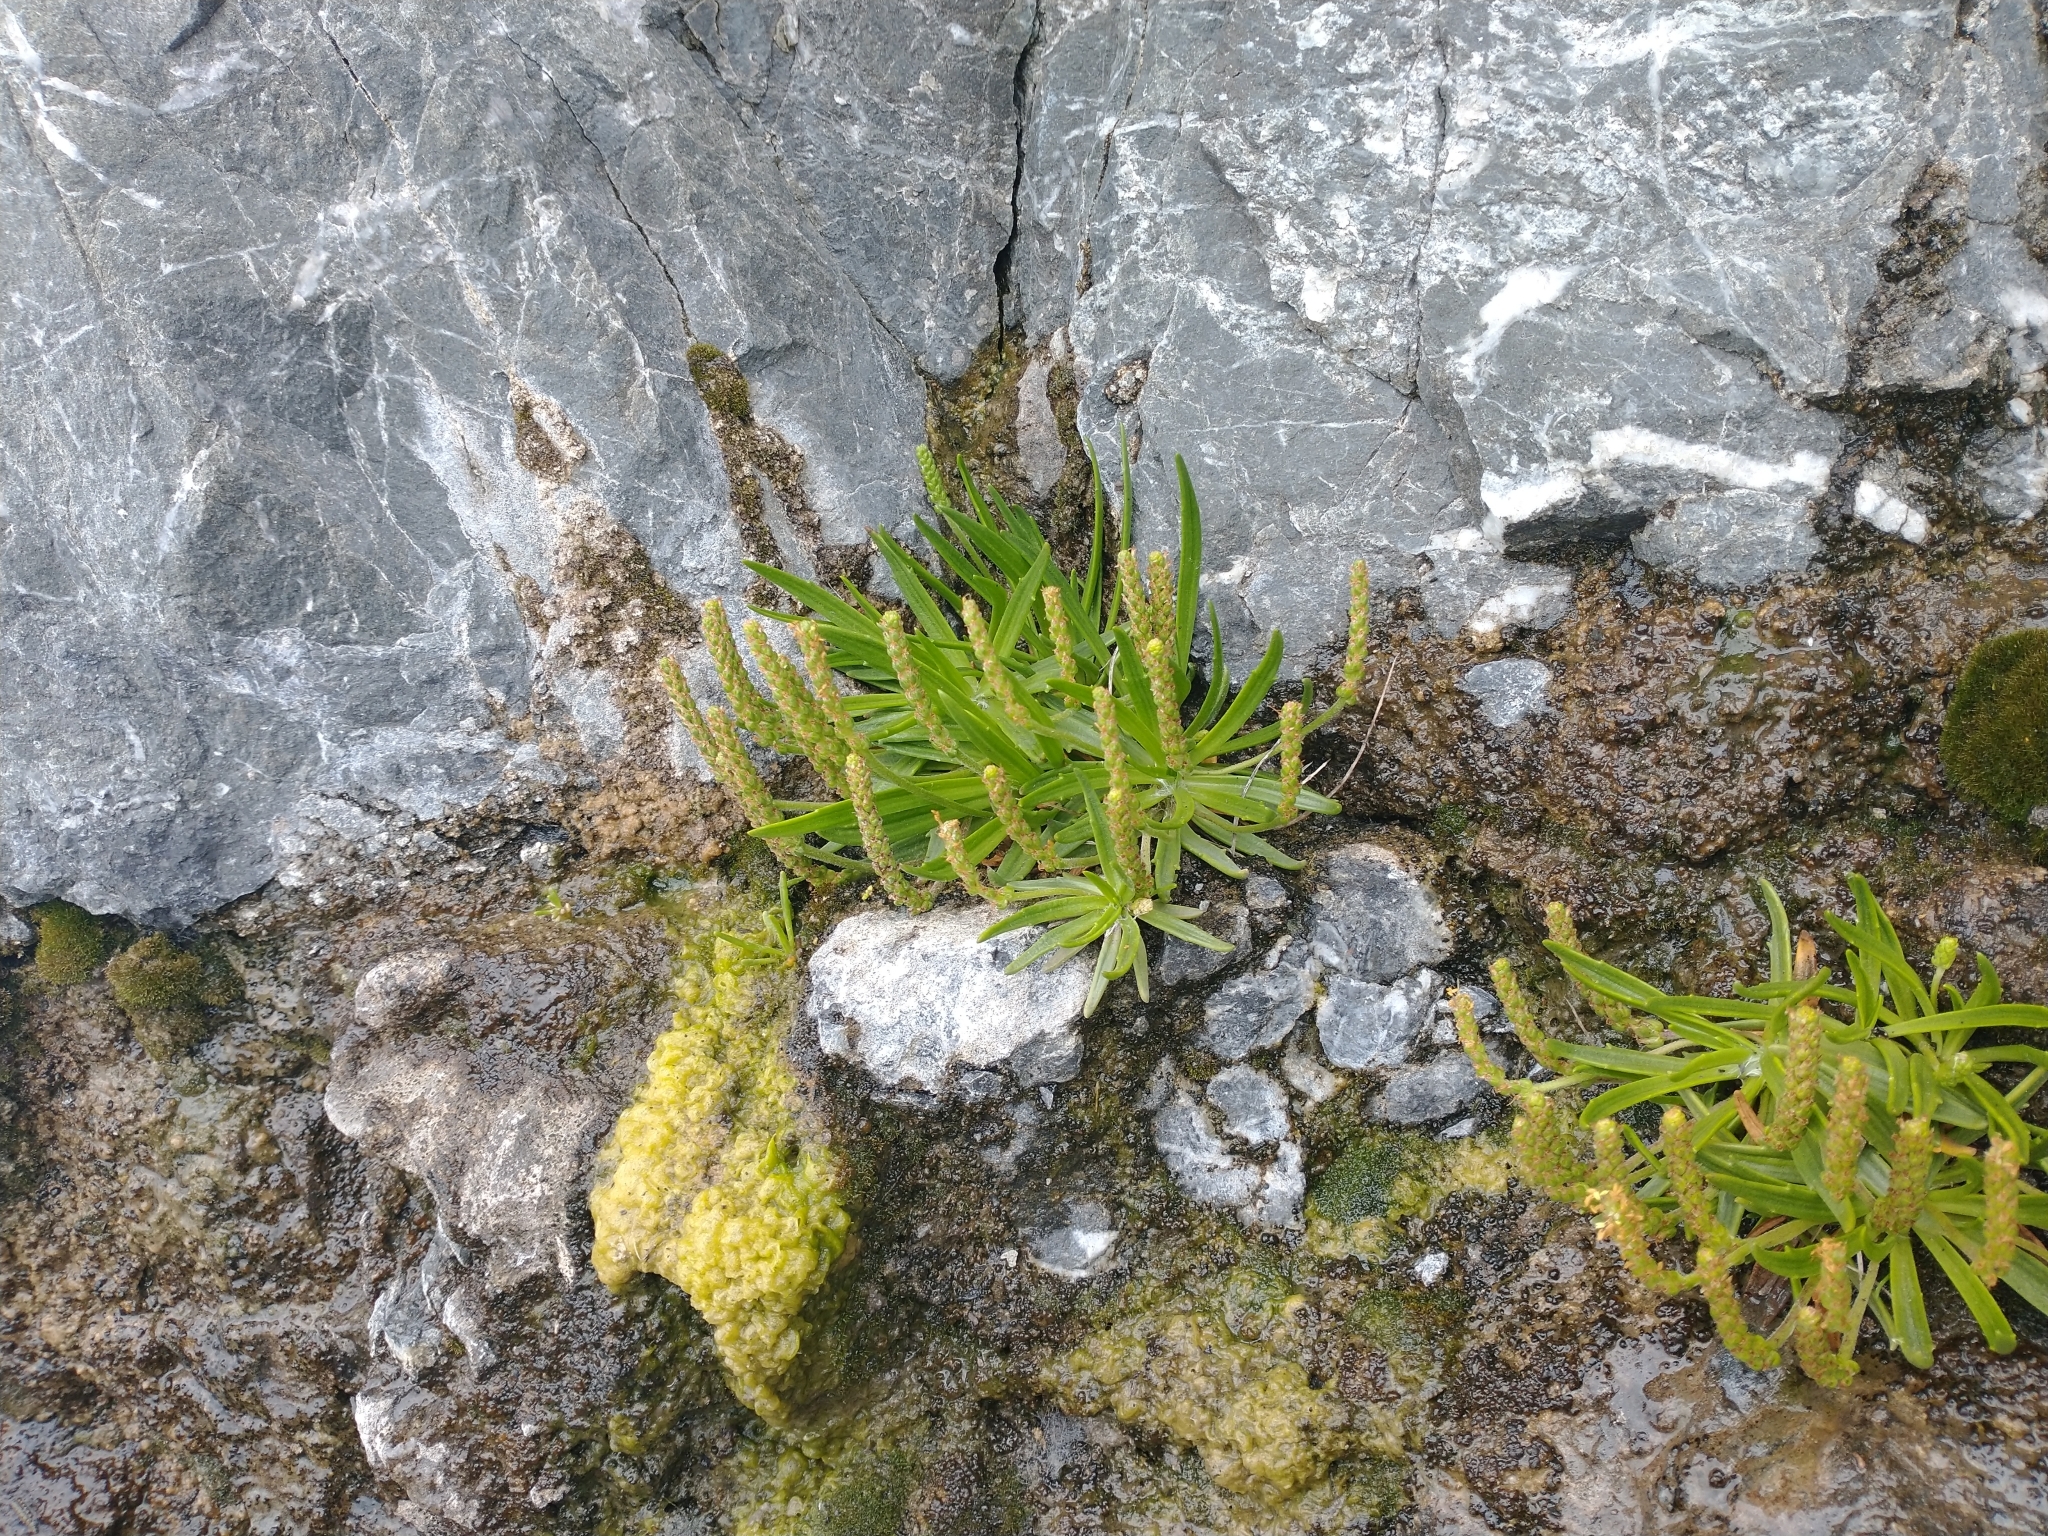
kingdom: Plantae
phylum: Tracheophyta
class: Magnoliopsida
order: Lamiales
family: Plantaginaceae
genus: Plantago
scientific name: Plantago maritima
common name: Sea plantain
